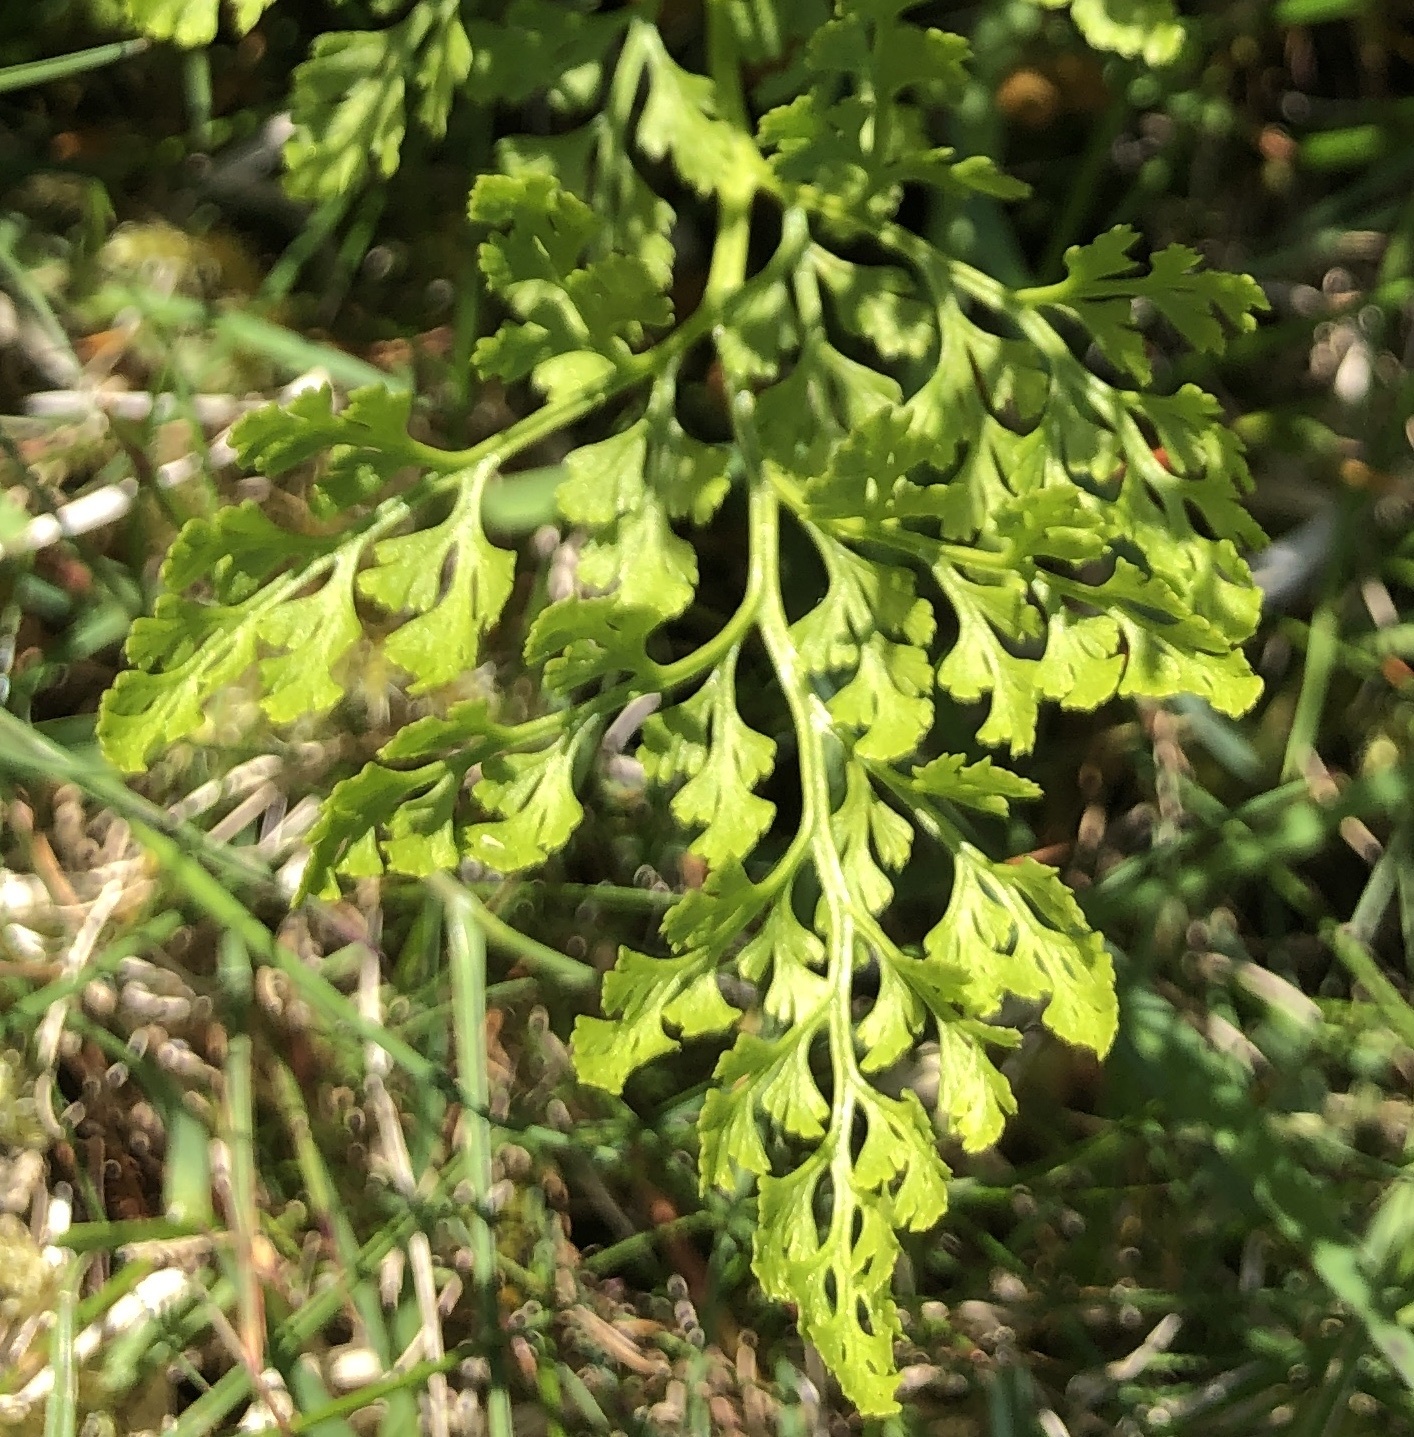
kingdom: Plantae
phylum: Tracheophyta
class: Polypodiopsida
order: Polypodiales
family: Pteridaceae
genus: Cryptogramma
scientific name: Cryptogramma crispa
